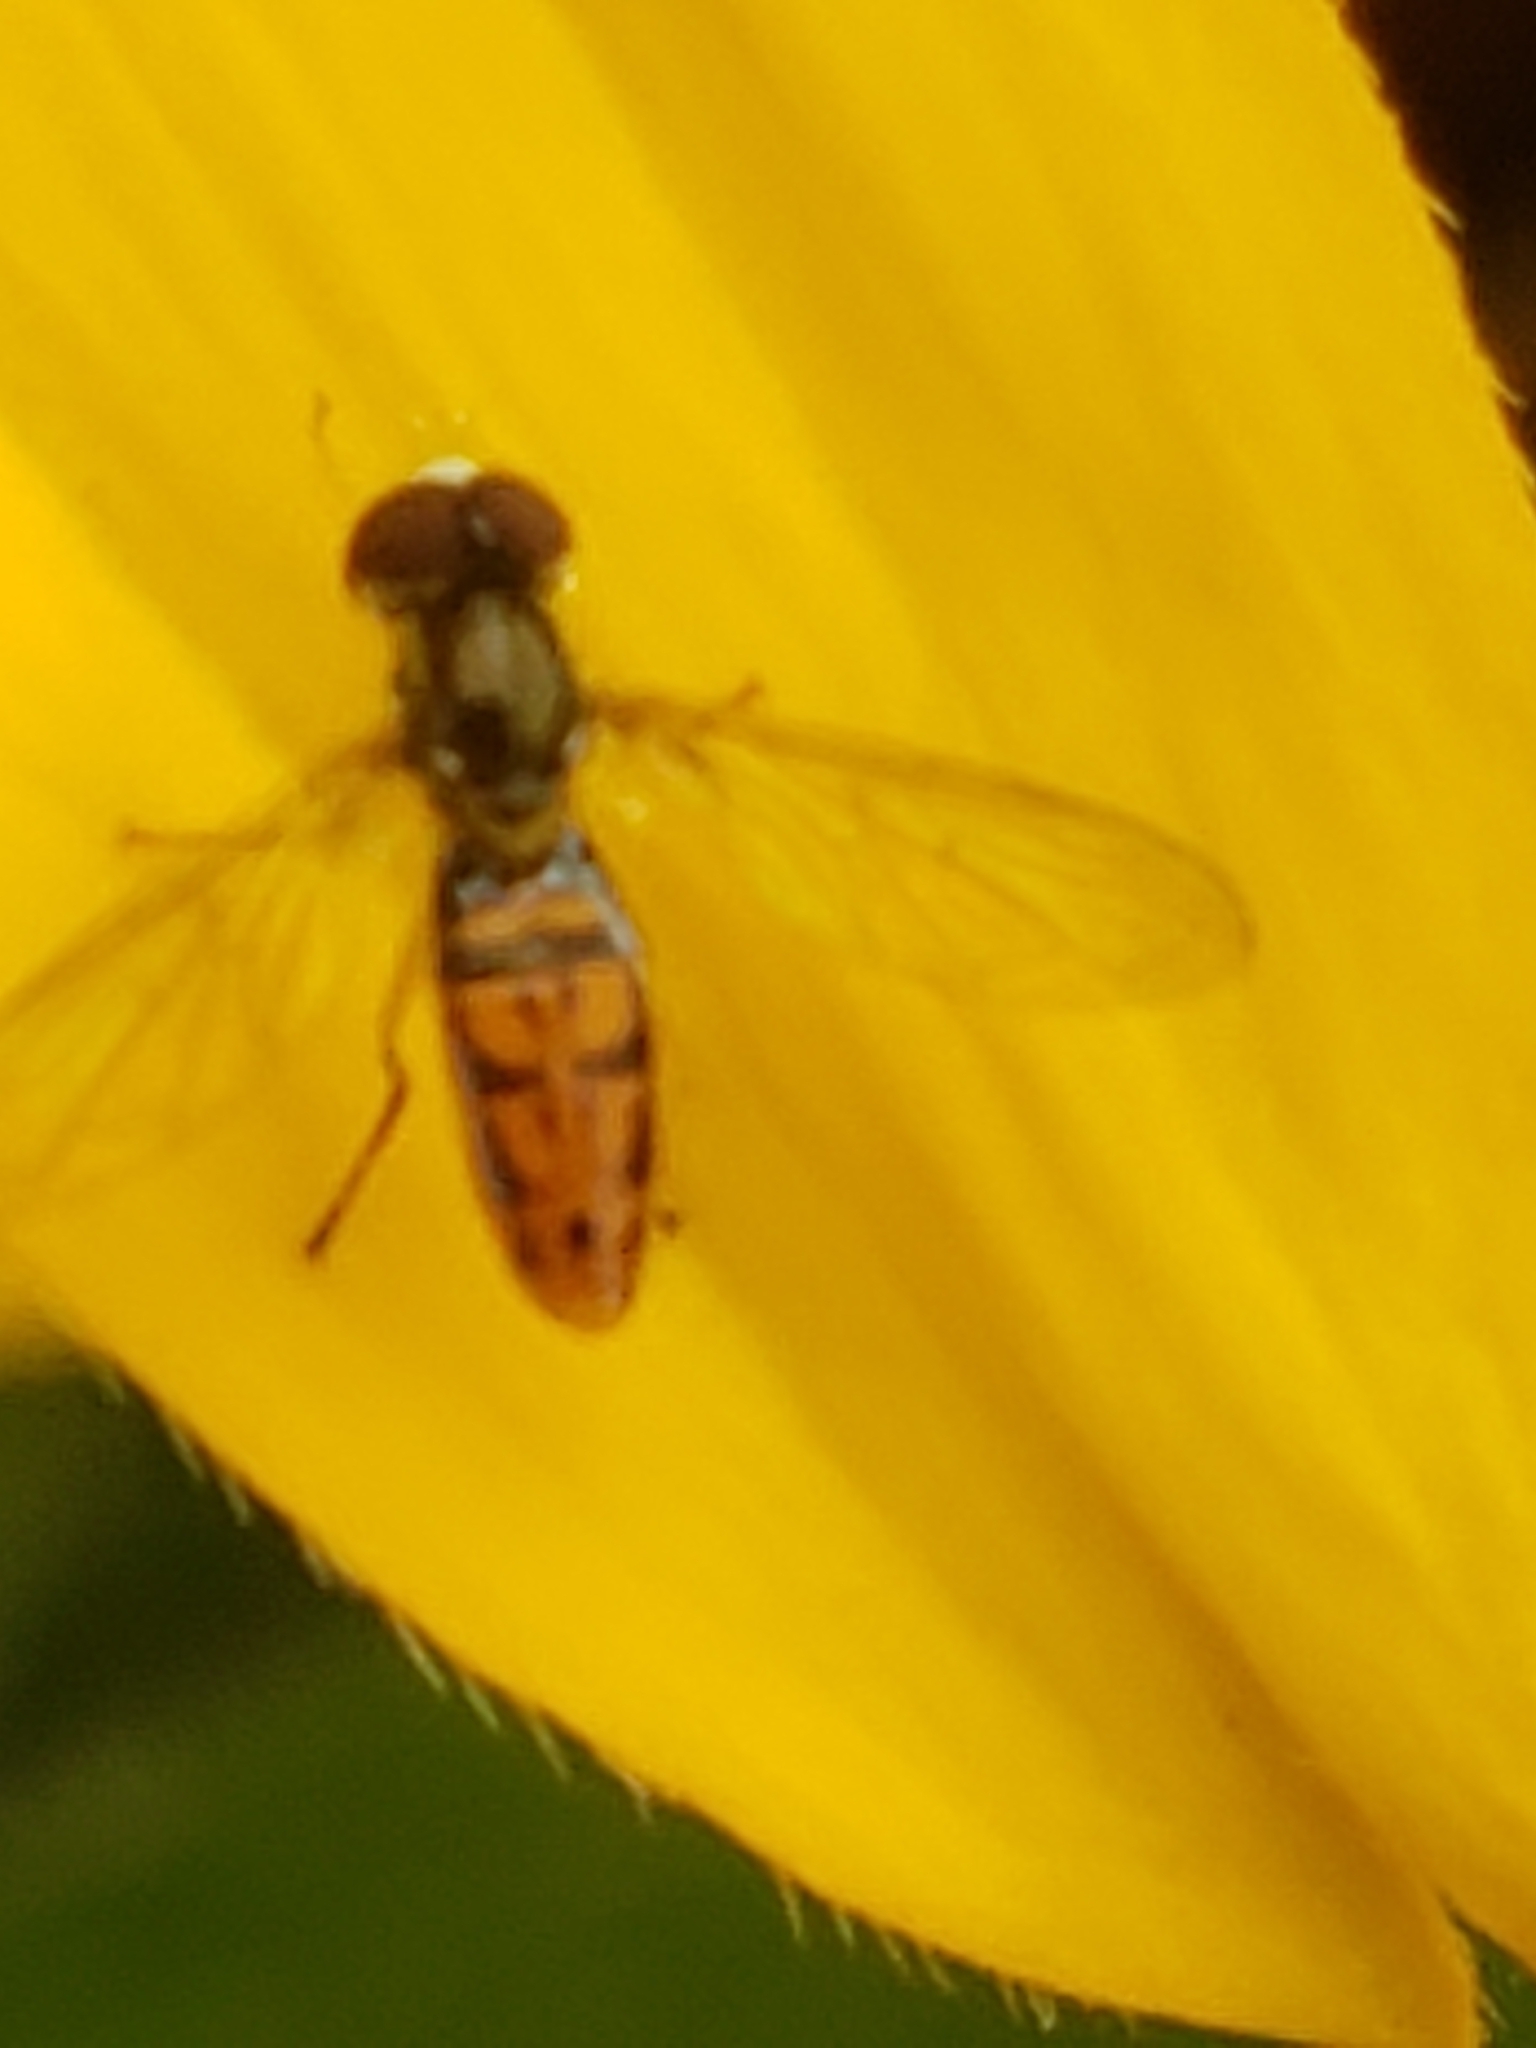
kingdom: Animalia
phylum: Arthropoda
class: Insecta
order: Diptera
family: Syrphidae
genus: Toxomerus
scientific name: Toxomerus marginatus
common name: Syrphid fly
